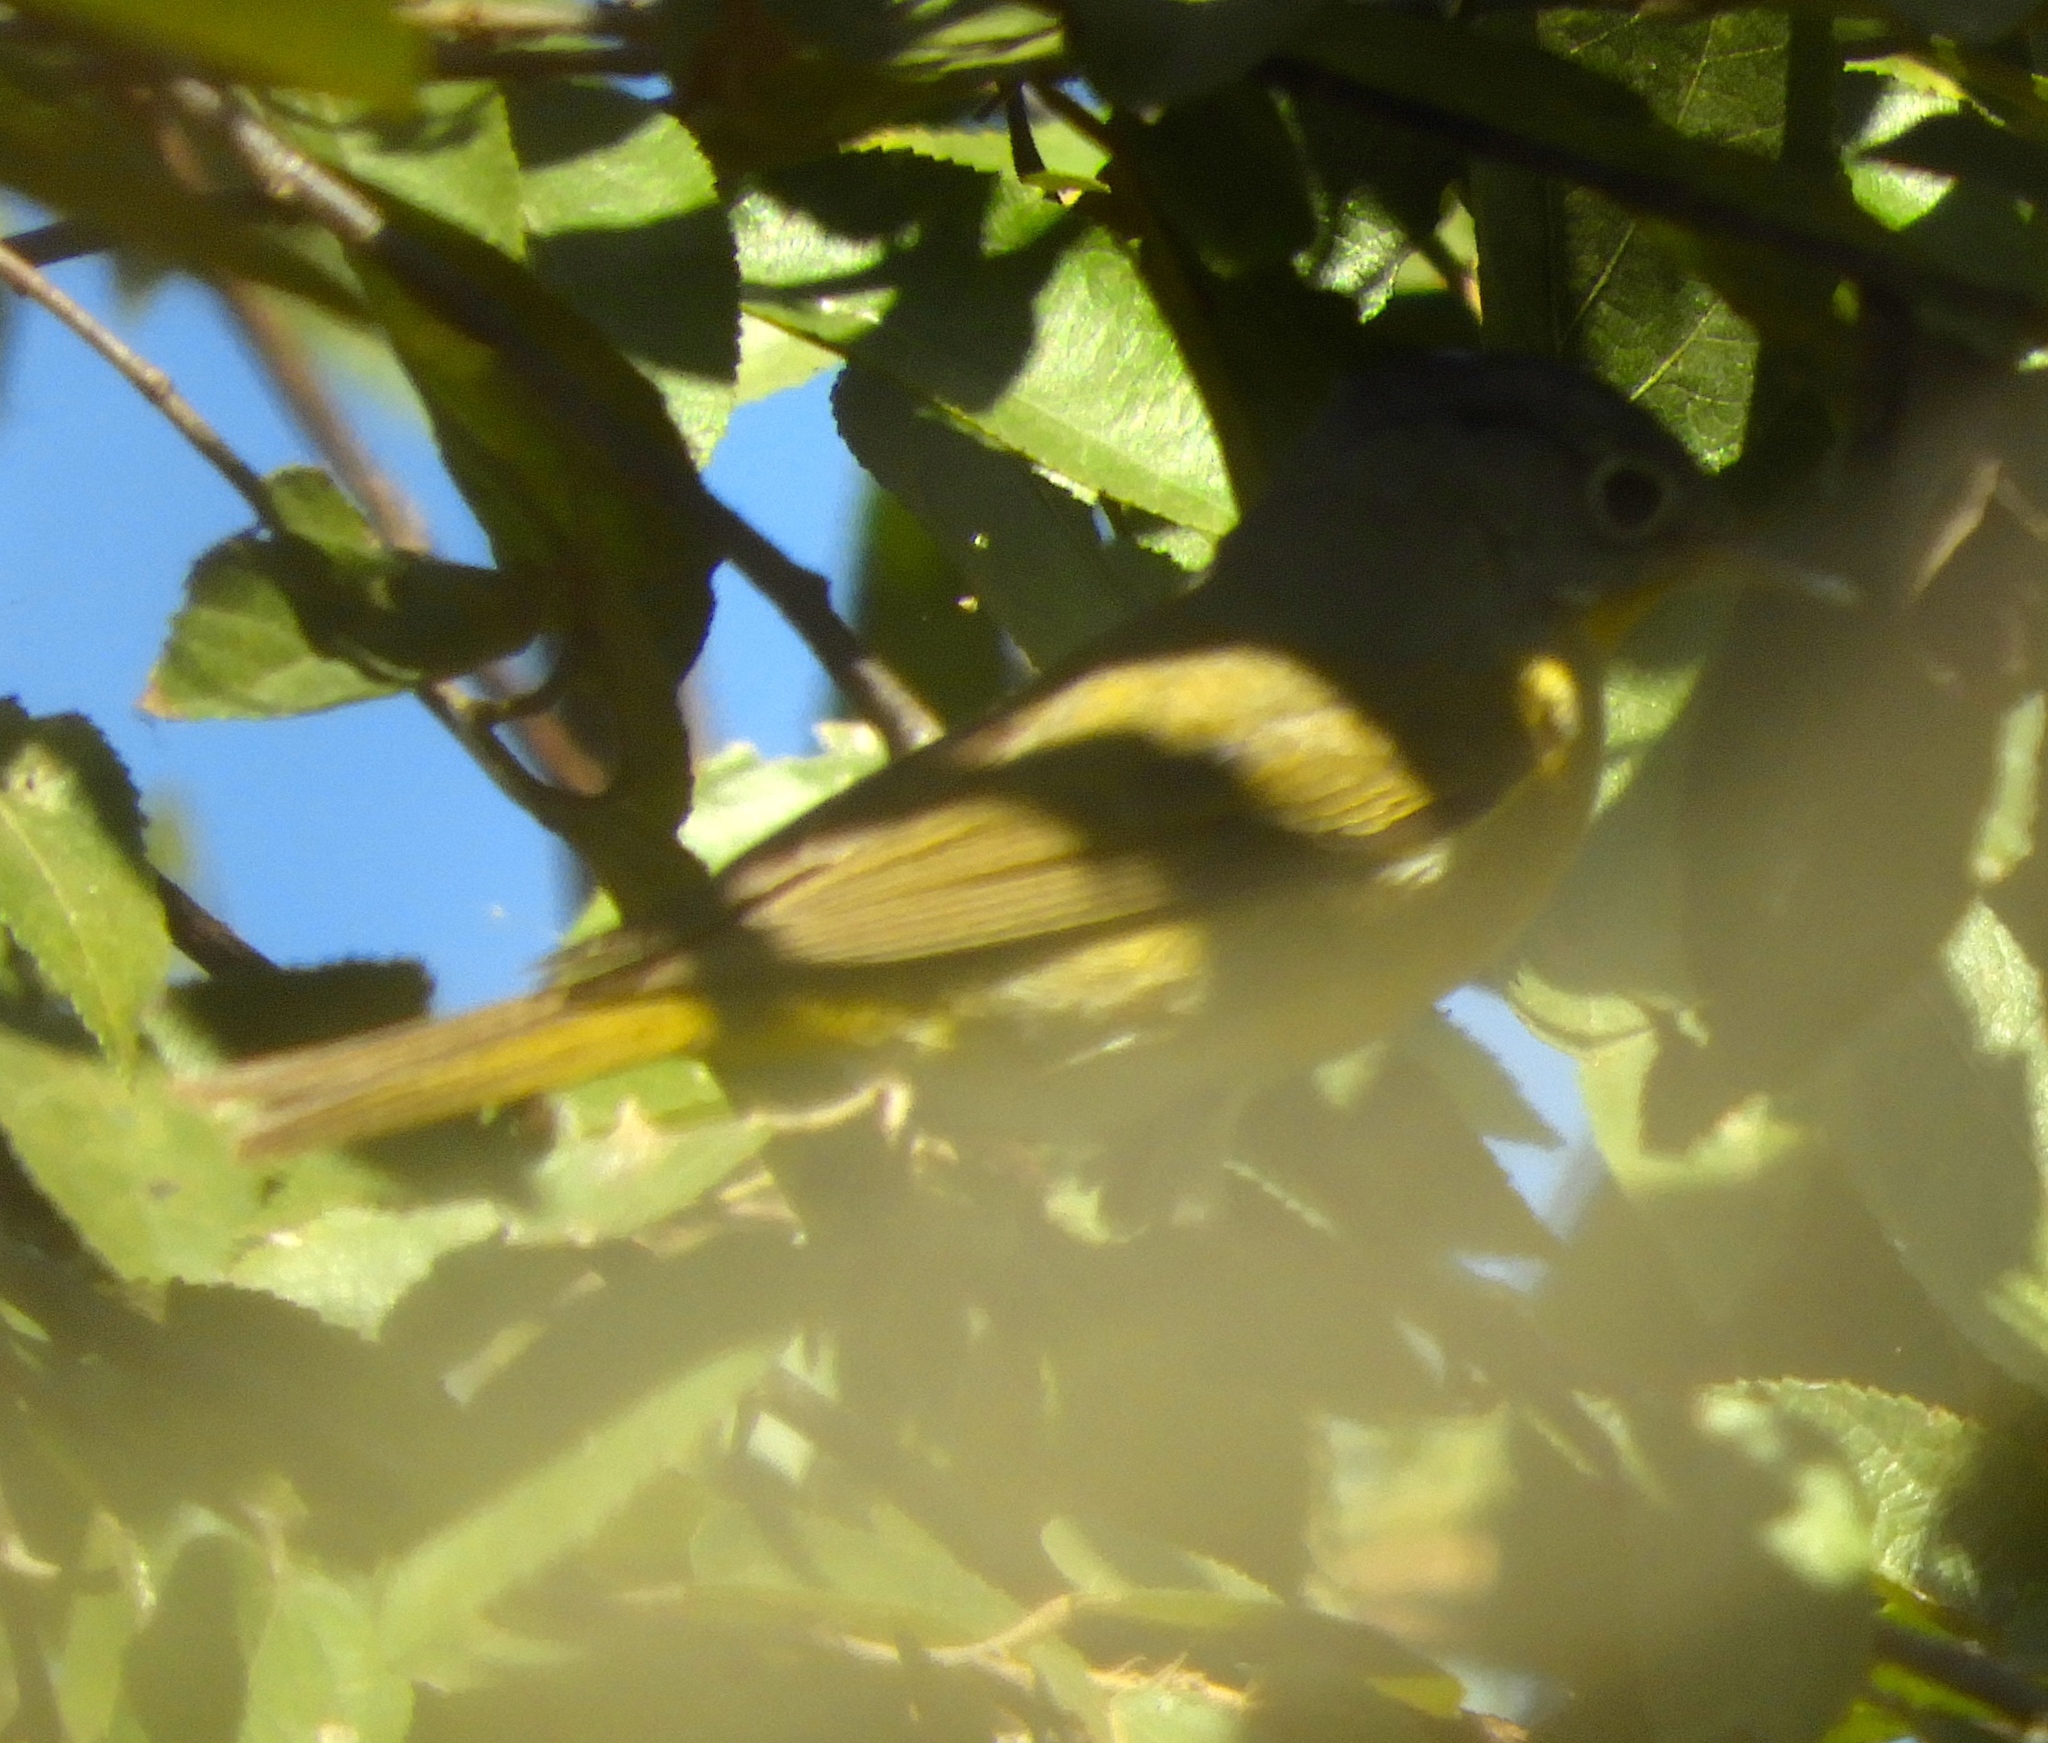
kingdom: Animalia
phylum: Chordata
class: Aves
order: Passeriformes
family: Parulidae
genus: Leiothlypis
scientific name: Leiothlypis ruficapilla
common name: Nashville warbler
